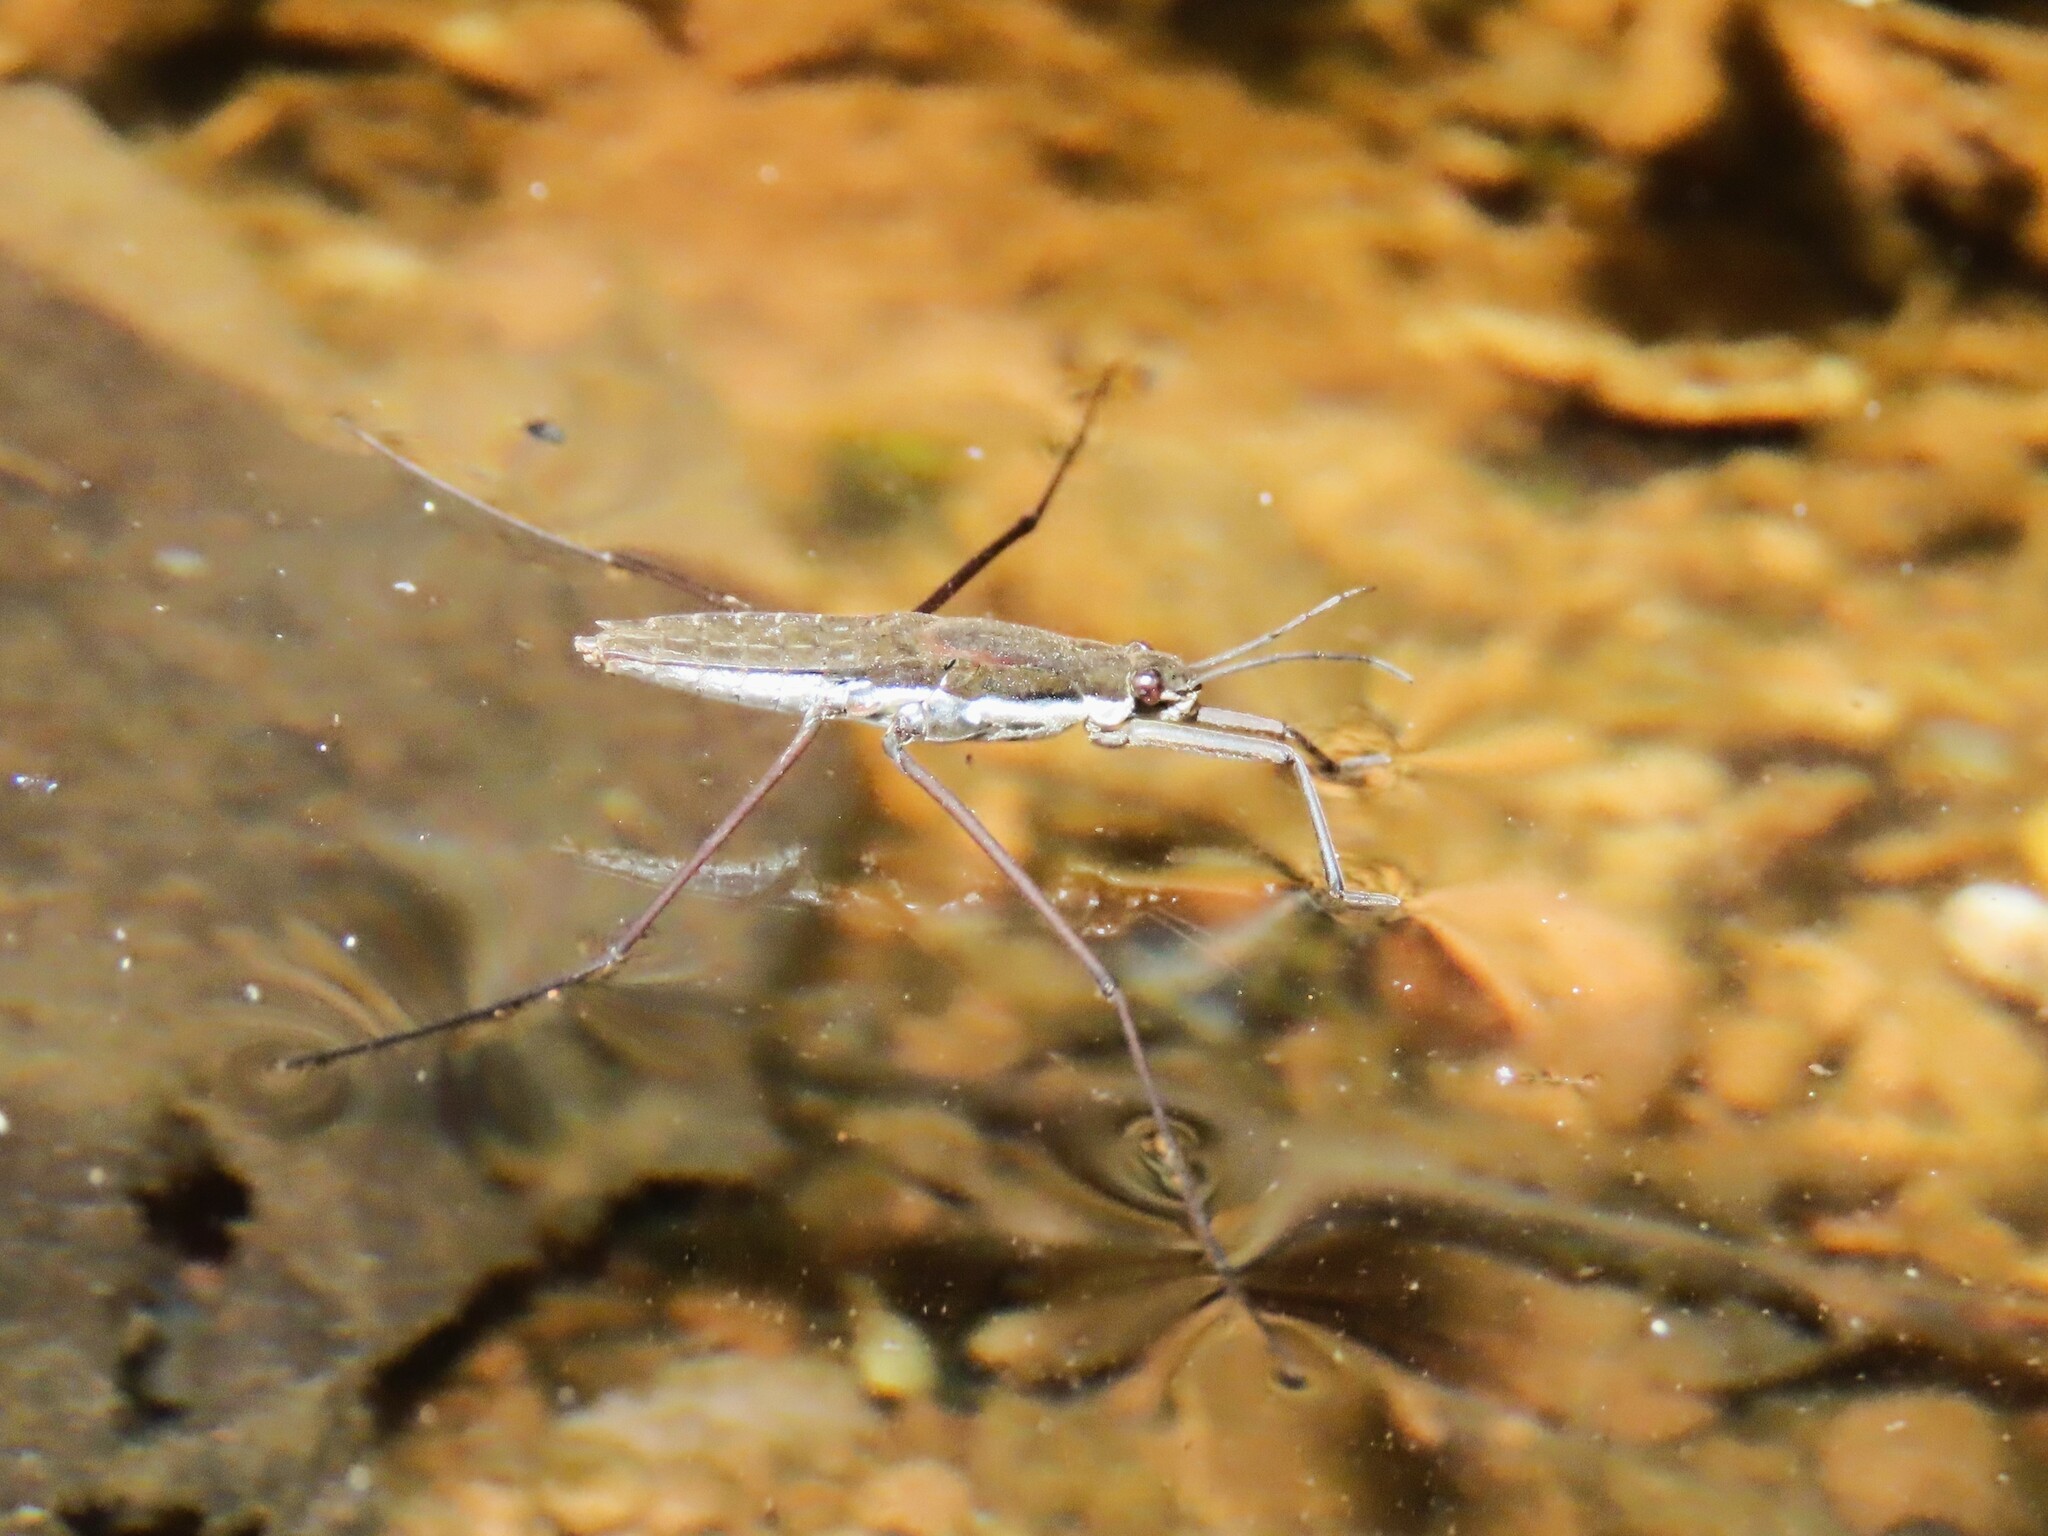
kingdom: Animalia
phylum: Arthropoda
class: Insecta
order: Hemiptera
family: Gerridae
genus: Aquarius
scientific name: Aquarius remigis
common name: Common water strider
